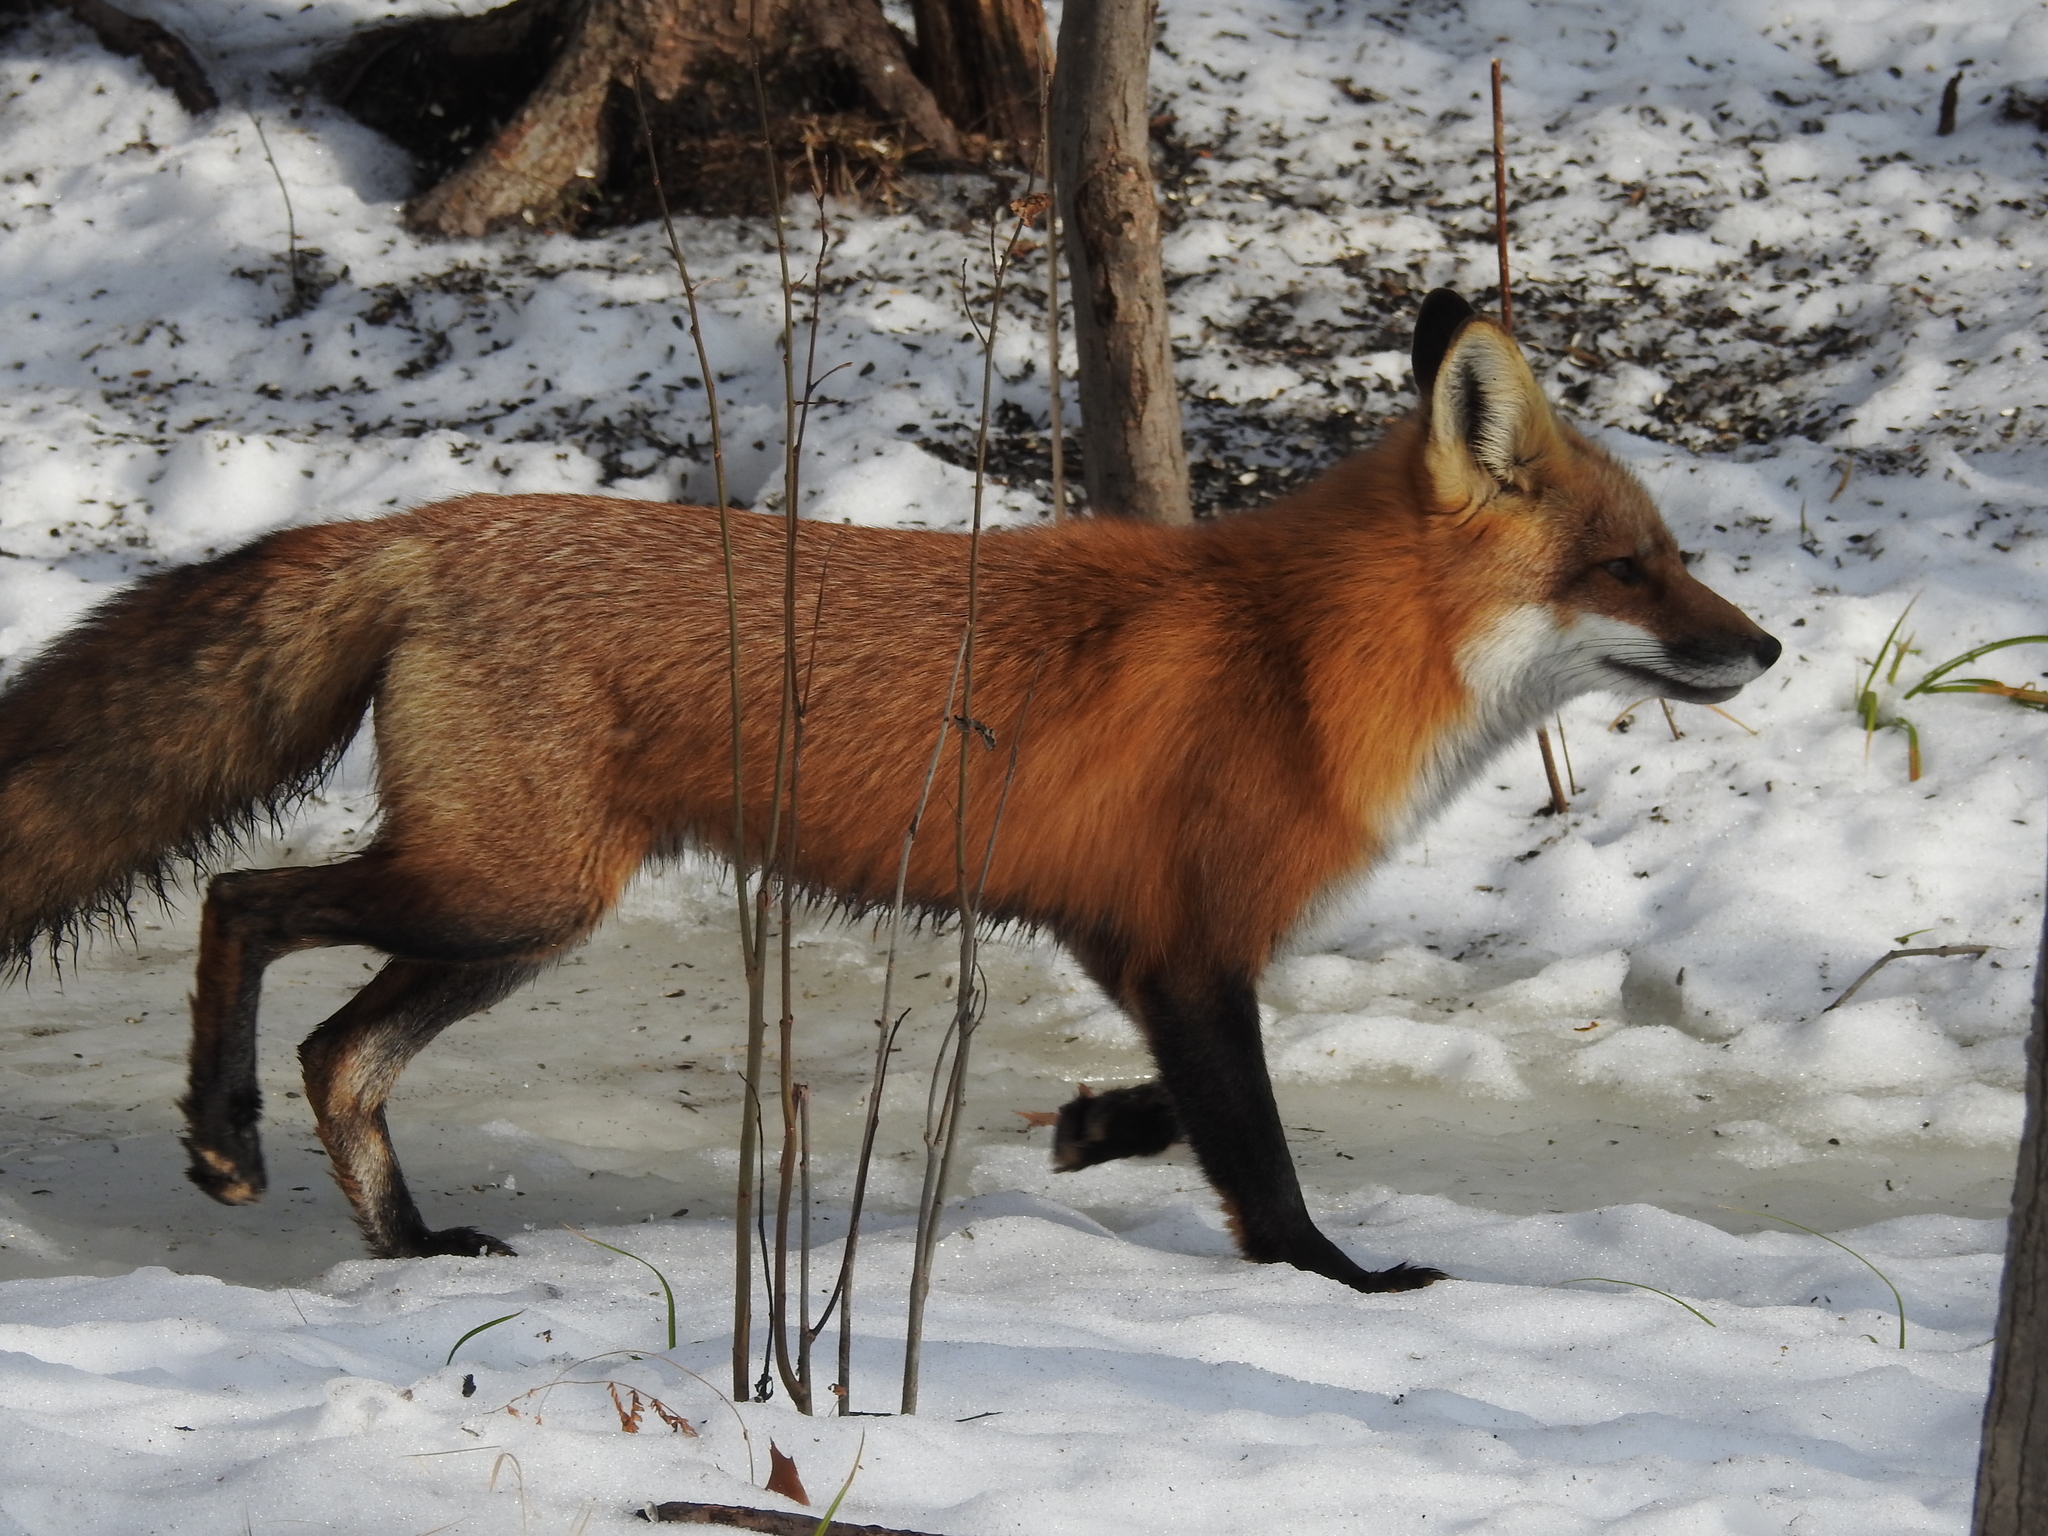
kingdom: Animalia
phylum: Chordata
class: Mammalia
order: Carnivora
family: Canidae
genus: Vulpes
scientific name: Vulpes vulpes
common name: Red fox
